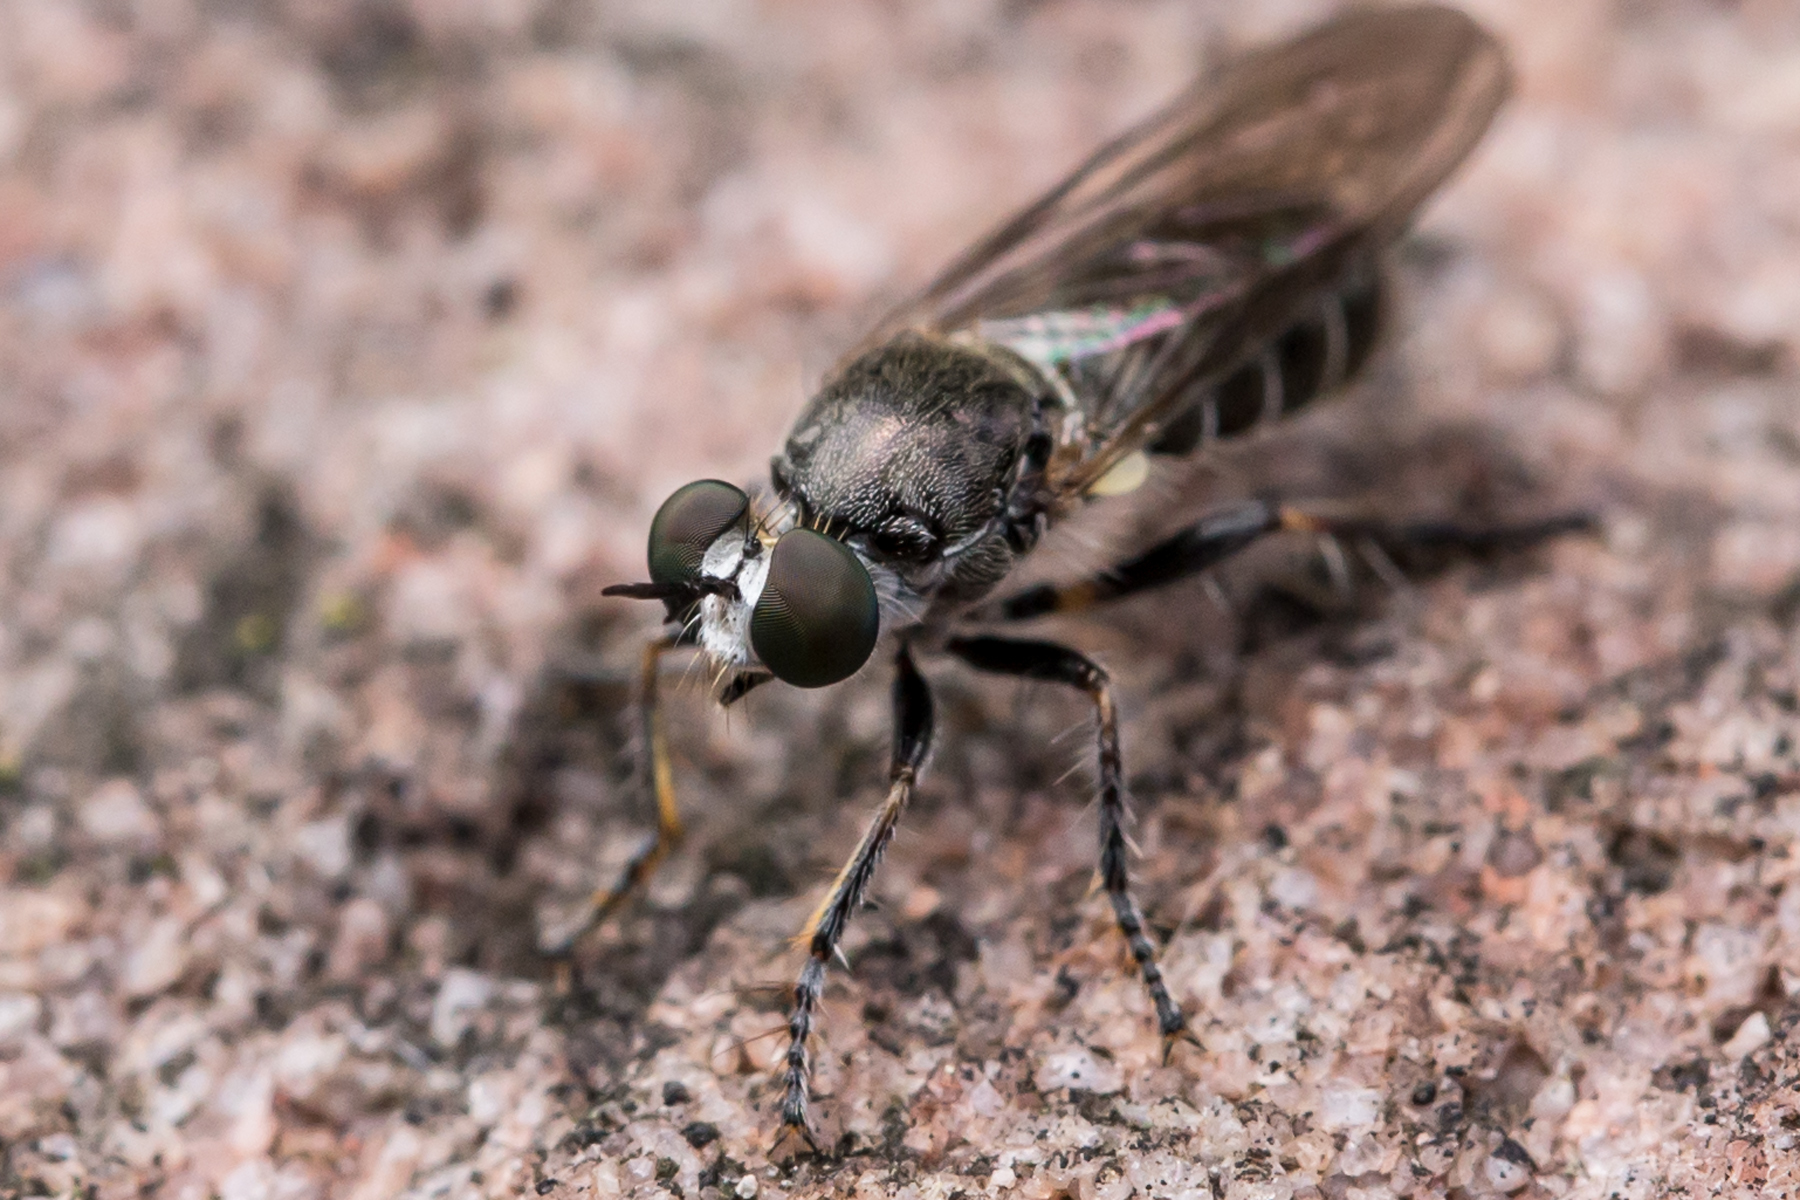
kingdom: Animalia
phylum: Arthropoda
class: Insecta
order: Diptera
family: Asilidae
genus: Atomosia
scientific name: Atomosia puella
